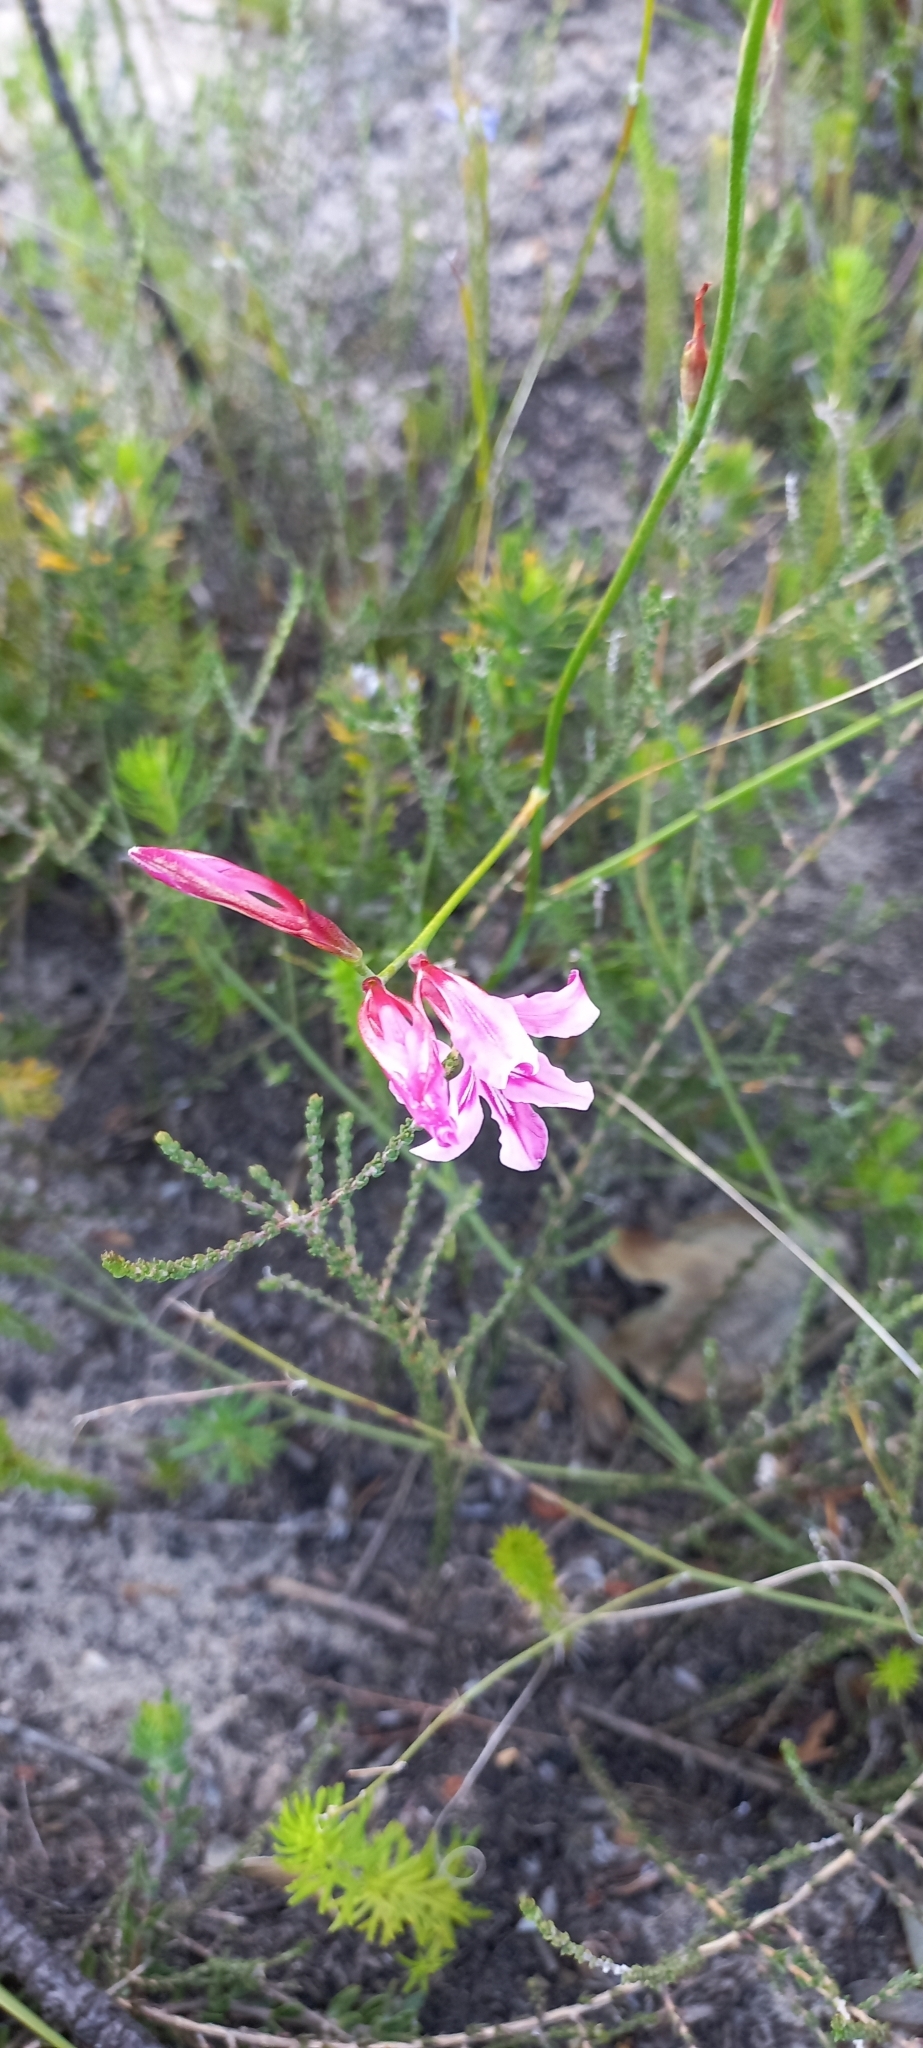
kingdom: Plantae
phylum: Tracheophyta
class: Liliopsida
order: Asparagales
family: Iridaceae
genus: Tritoniopsis
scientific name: Tritoniopsis lata
